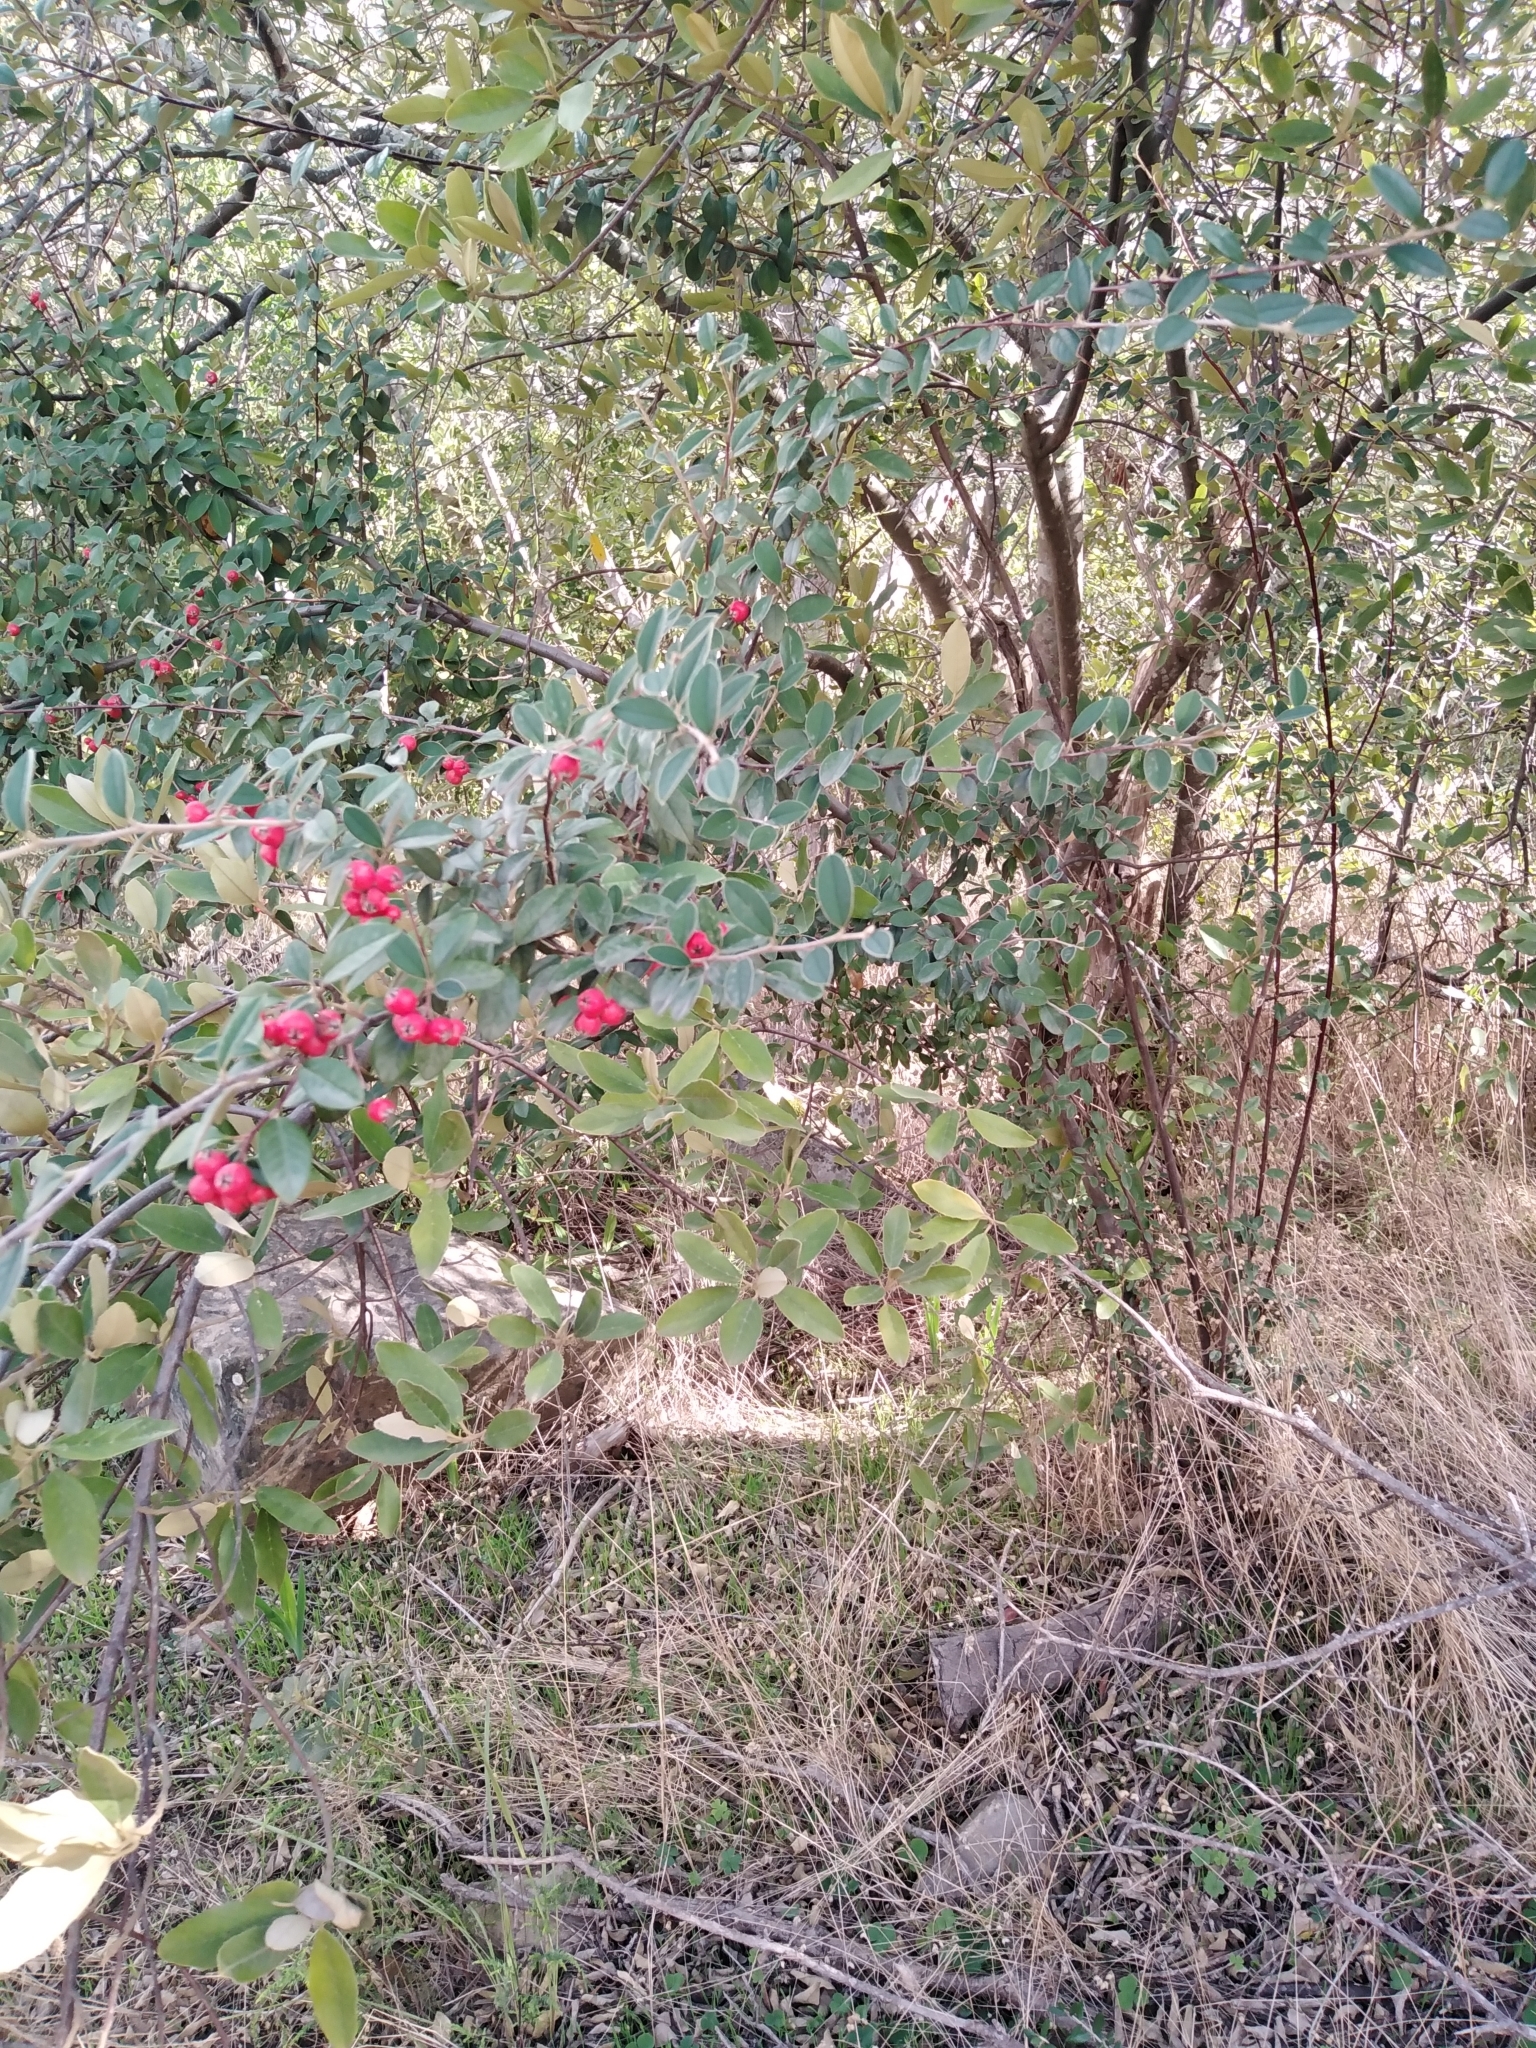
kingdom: Plantae
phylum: Tracheophyta
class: Magnoliopsida
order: Rosales
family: Rosaceae
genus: Cotoneaster
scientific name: Cotoneaster pannosus
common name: Silverleaf cotoneaster
